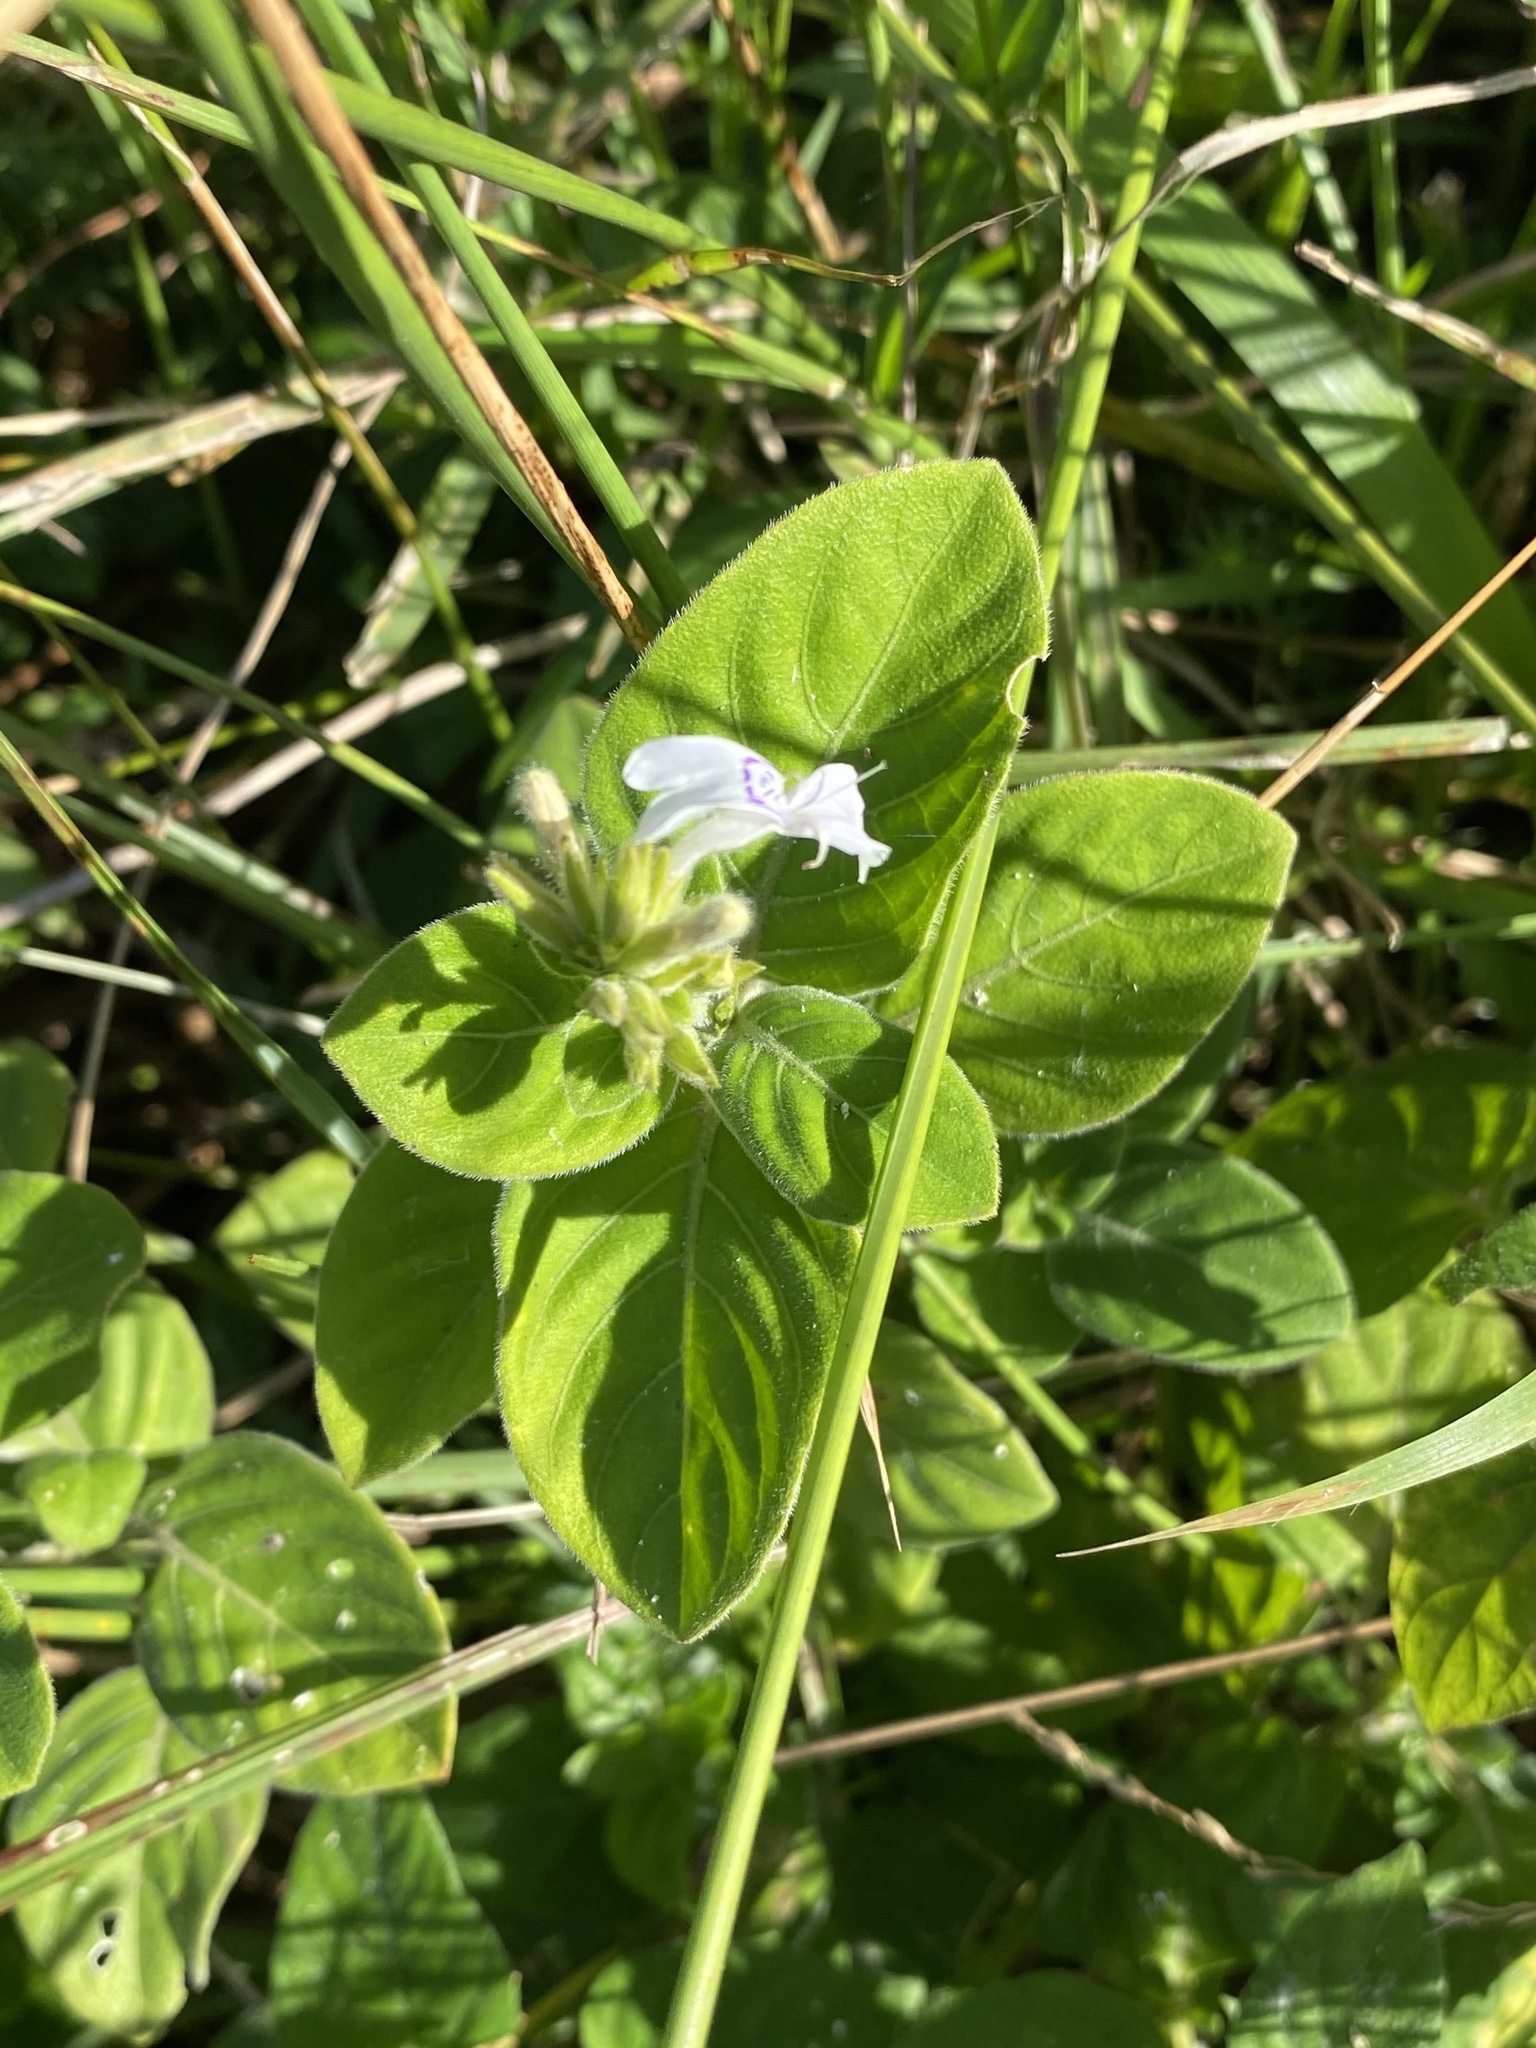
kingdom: Plantae
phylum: Tracheophyta
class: Magnoliopsida
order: Lamiales
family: Acanthaceae
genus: Hypoestes
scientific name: Hypoestes forskaolii
